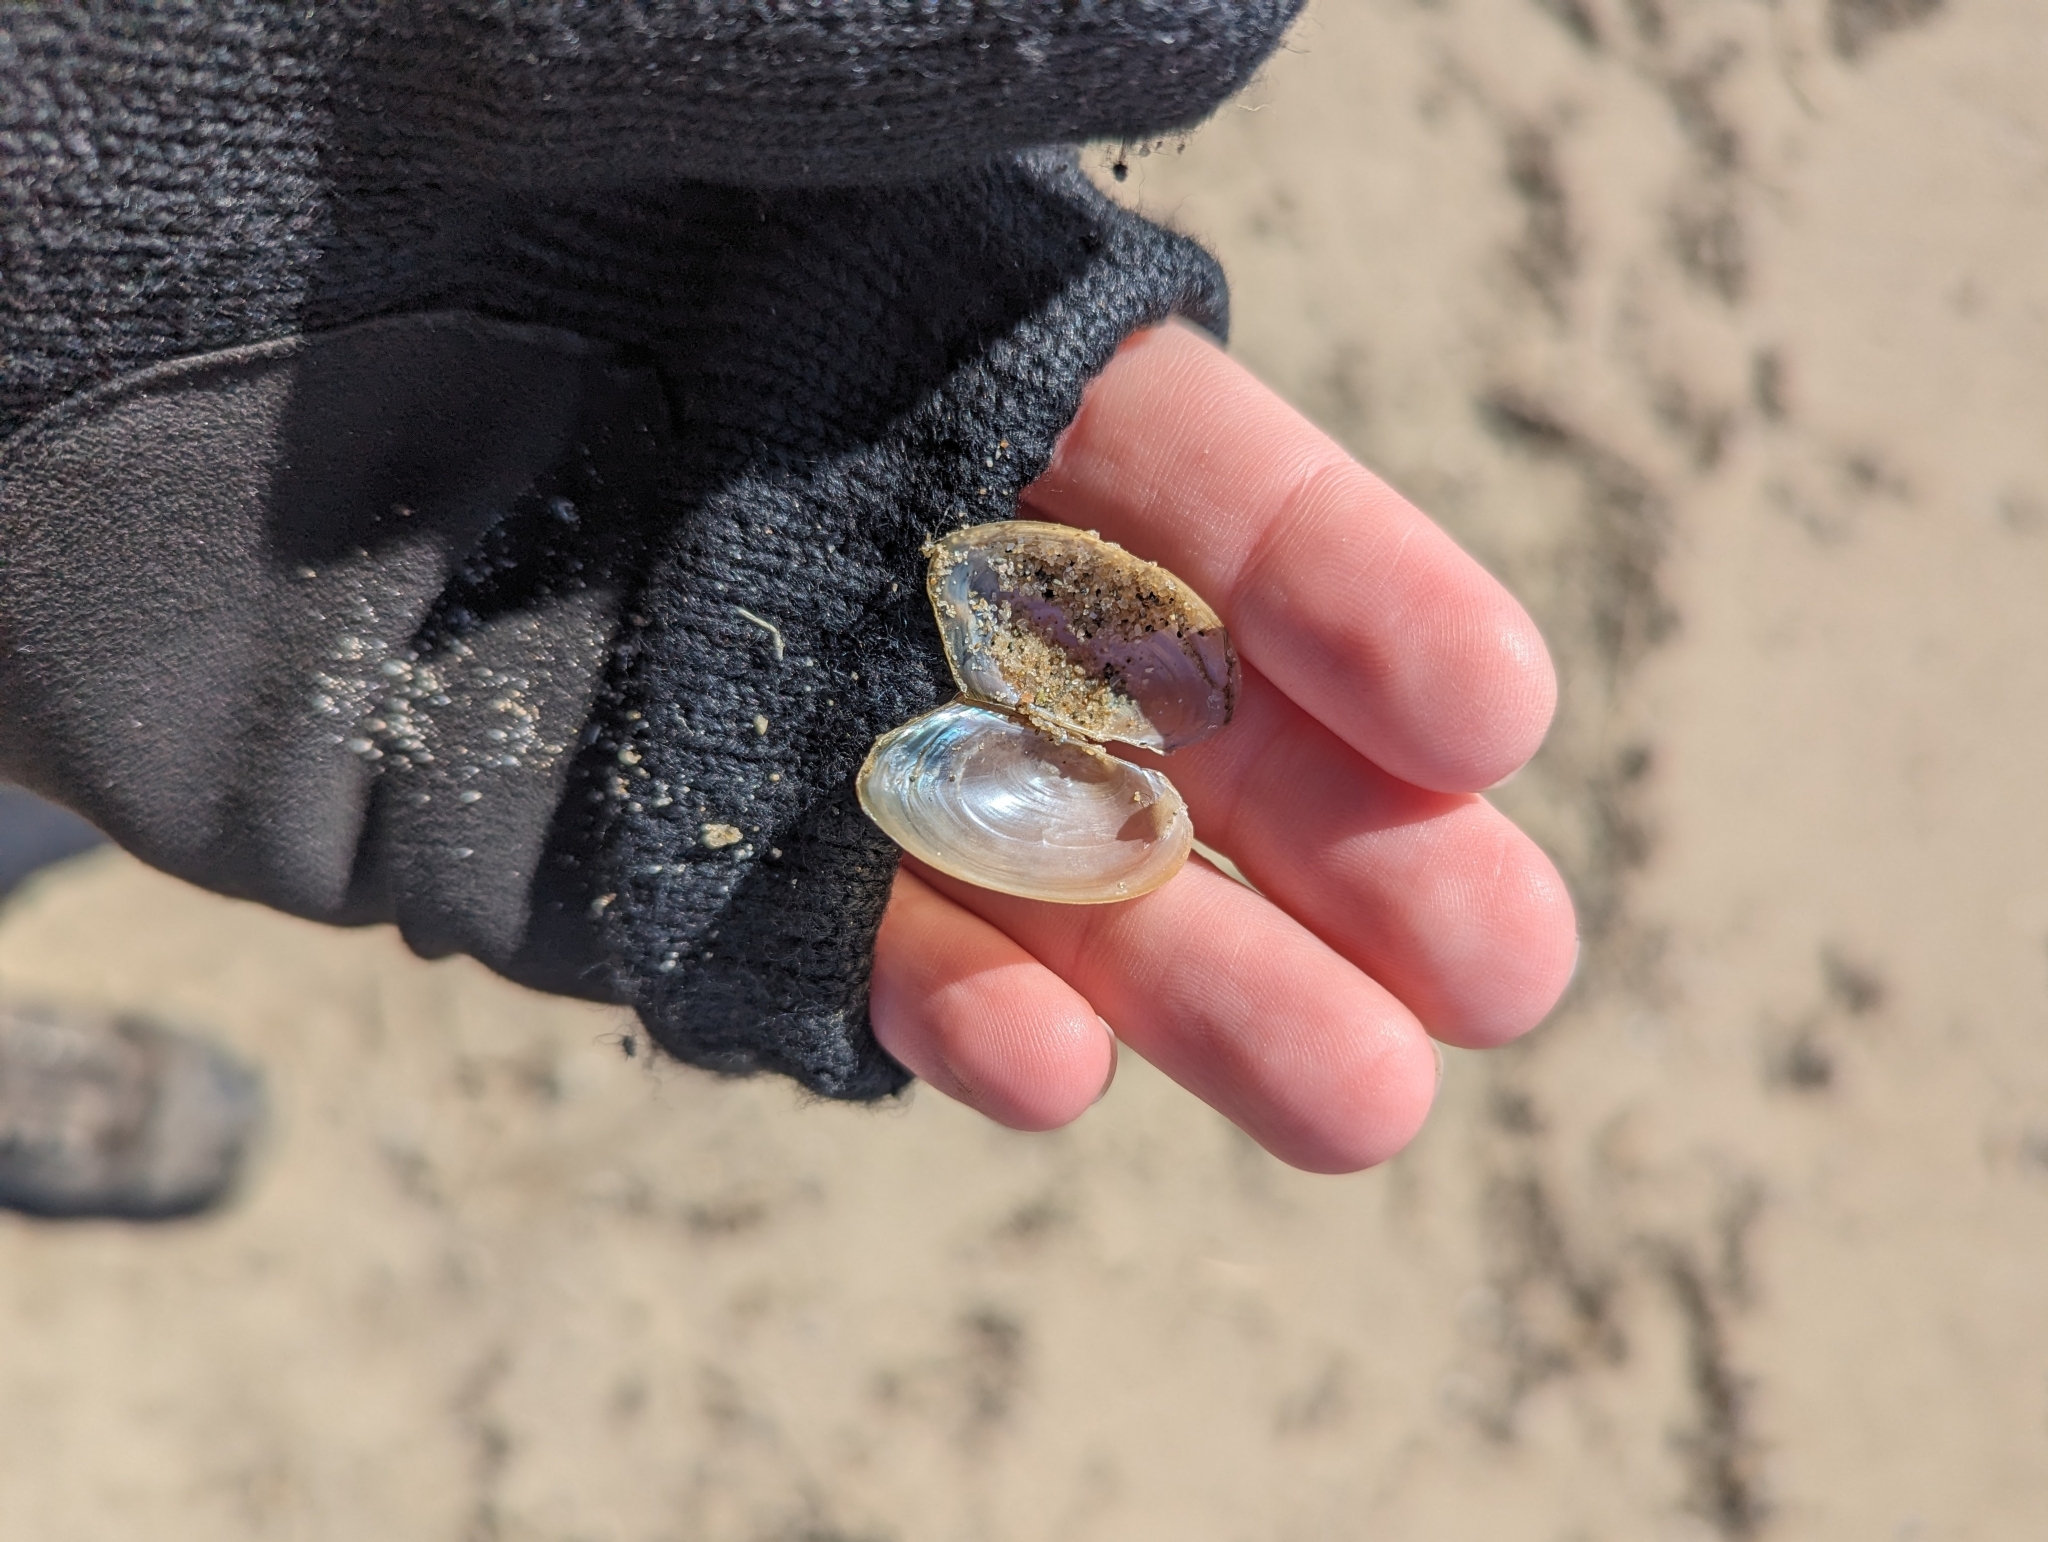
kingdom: Animalia
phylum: Mollusca
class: Bivalvia
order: Unionida
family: Unionidae
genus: Pyganodon
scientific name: Pyganodon grandis
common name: Giant floater
